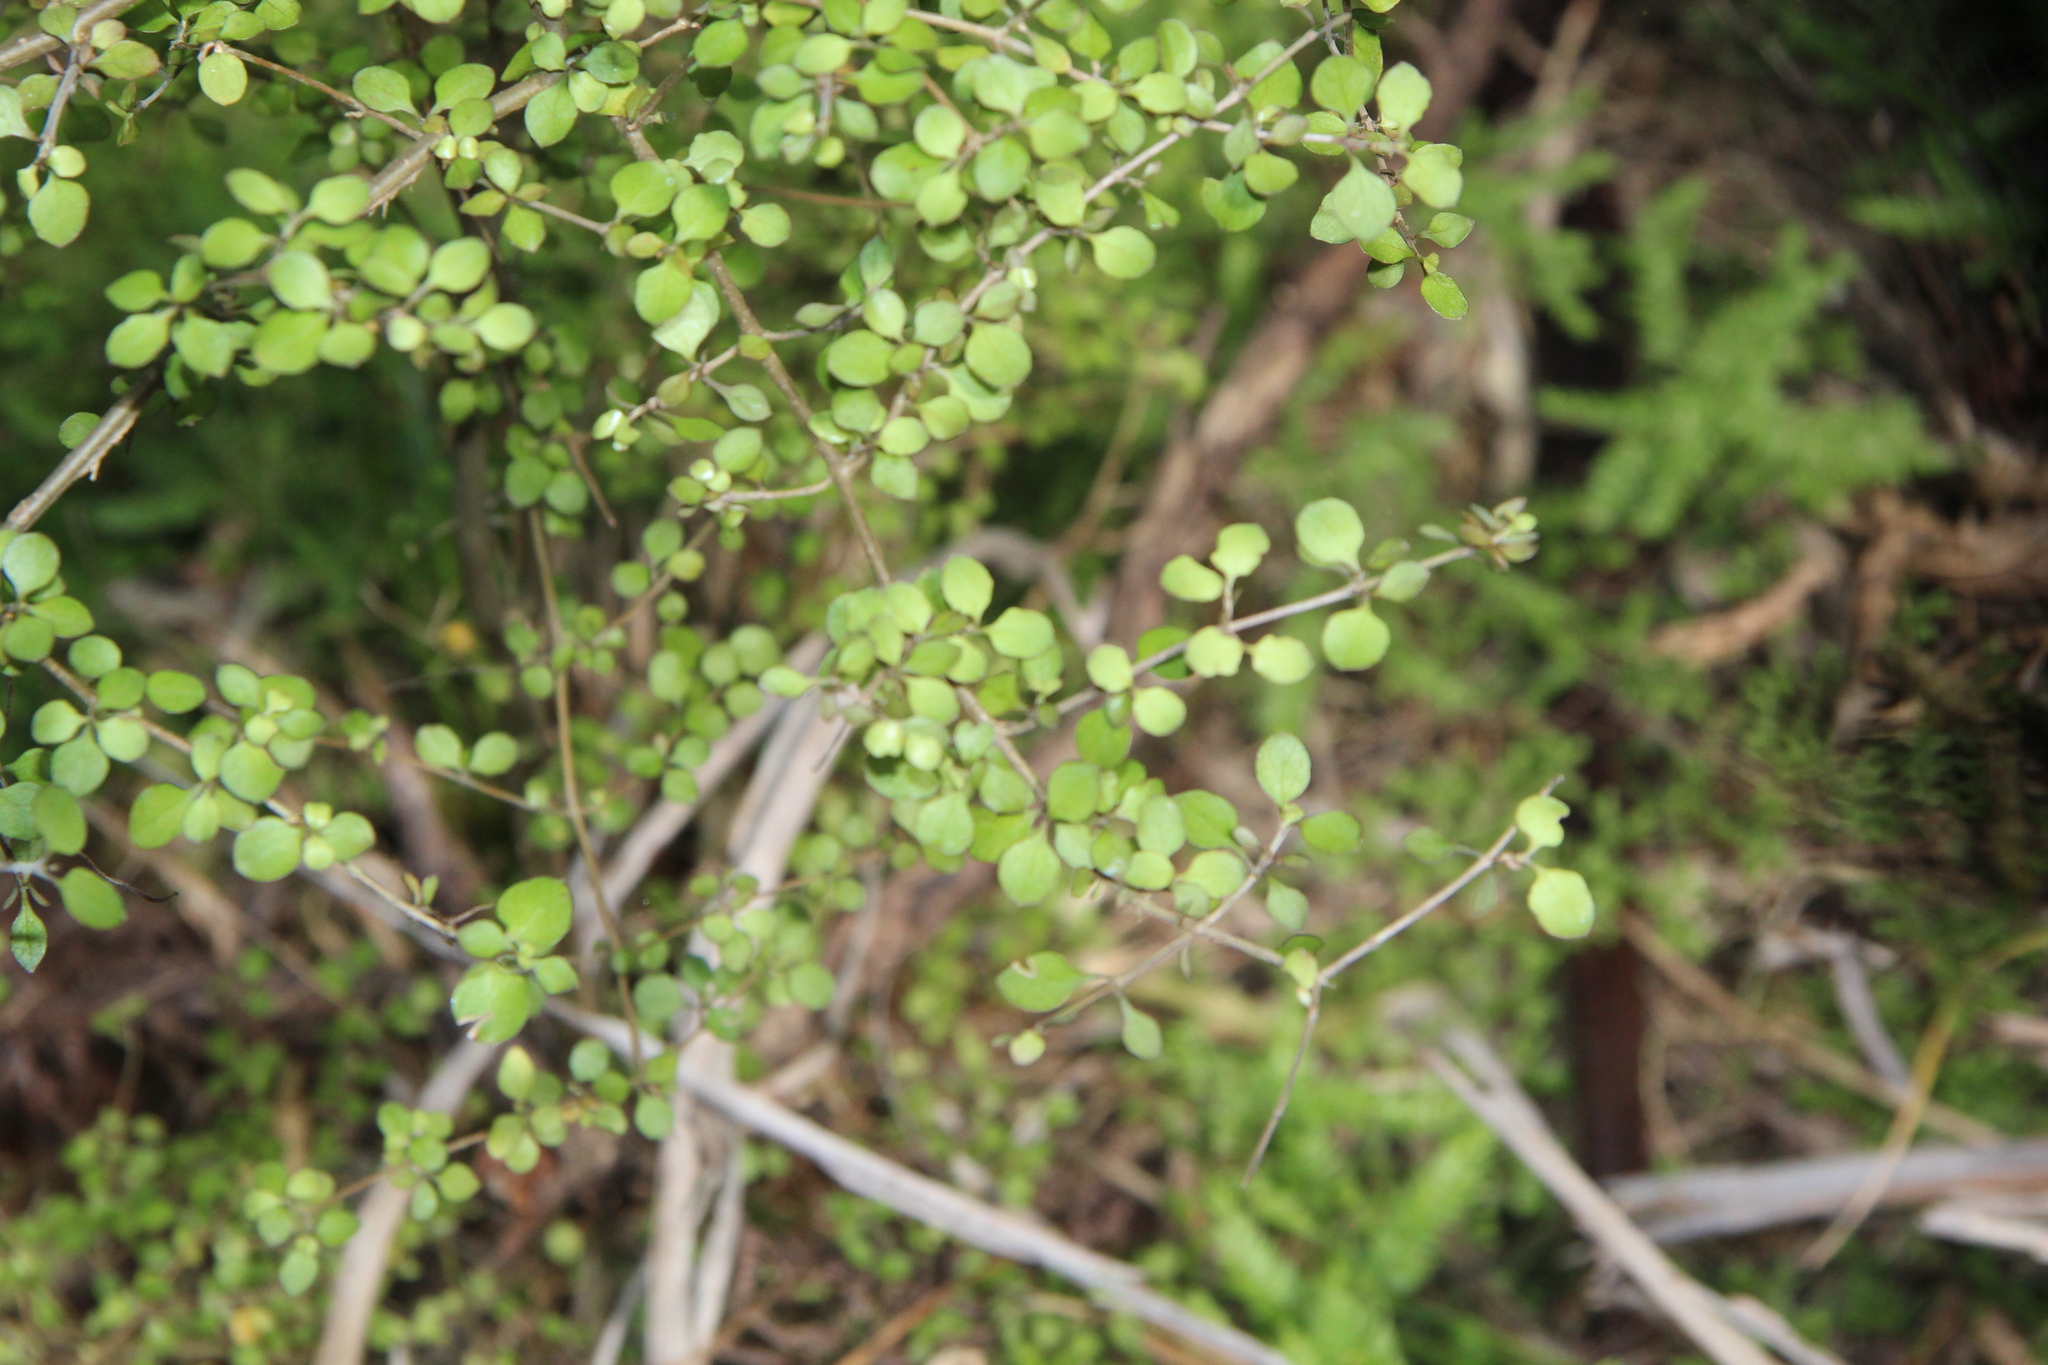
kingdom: Plantae
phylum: Tracheophyta
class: Magnoliopsida
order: Gentianales
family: Rubiaceae
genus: Coprosma
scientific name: Coprosma rhamnoides
